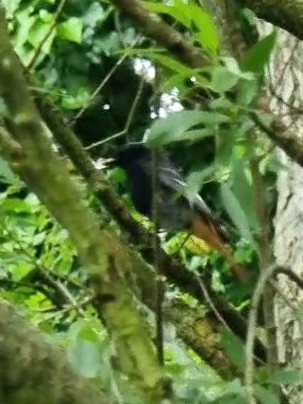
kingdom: Animalia
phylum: Chordata
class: Aves
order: Passeriformes
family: Muscicapidae
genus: Phoenicurus
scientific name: Phoenicurus ochruros
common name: Black redstart
